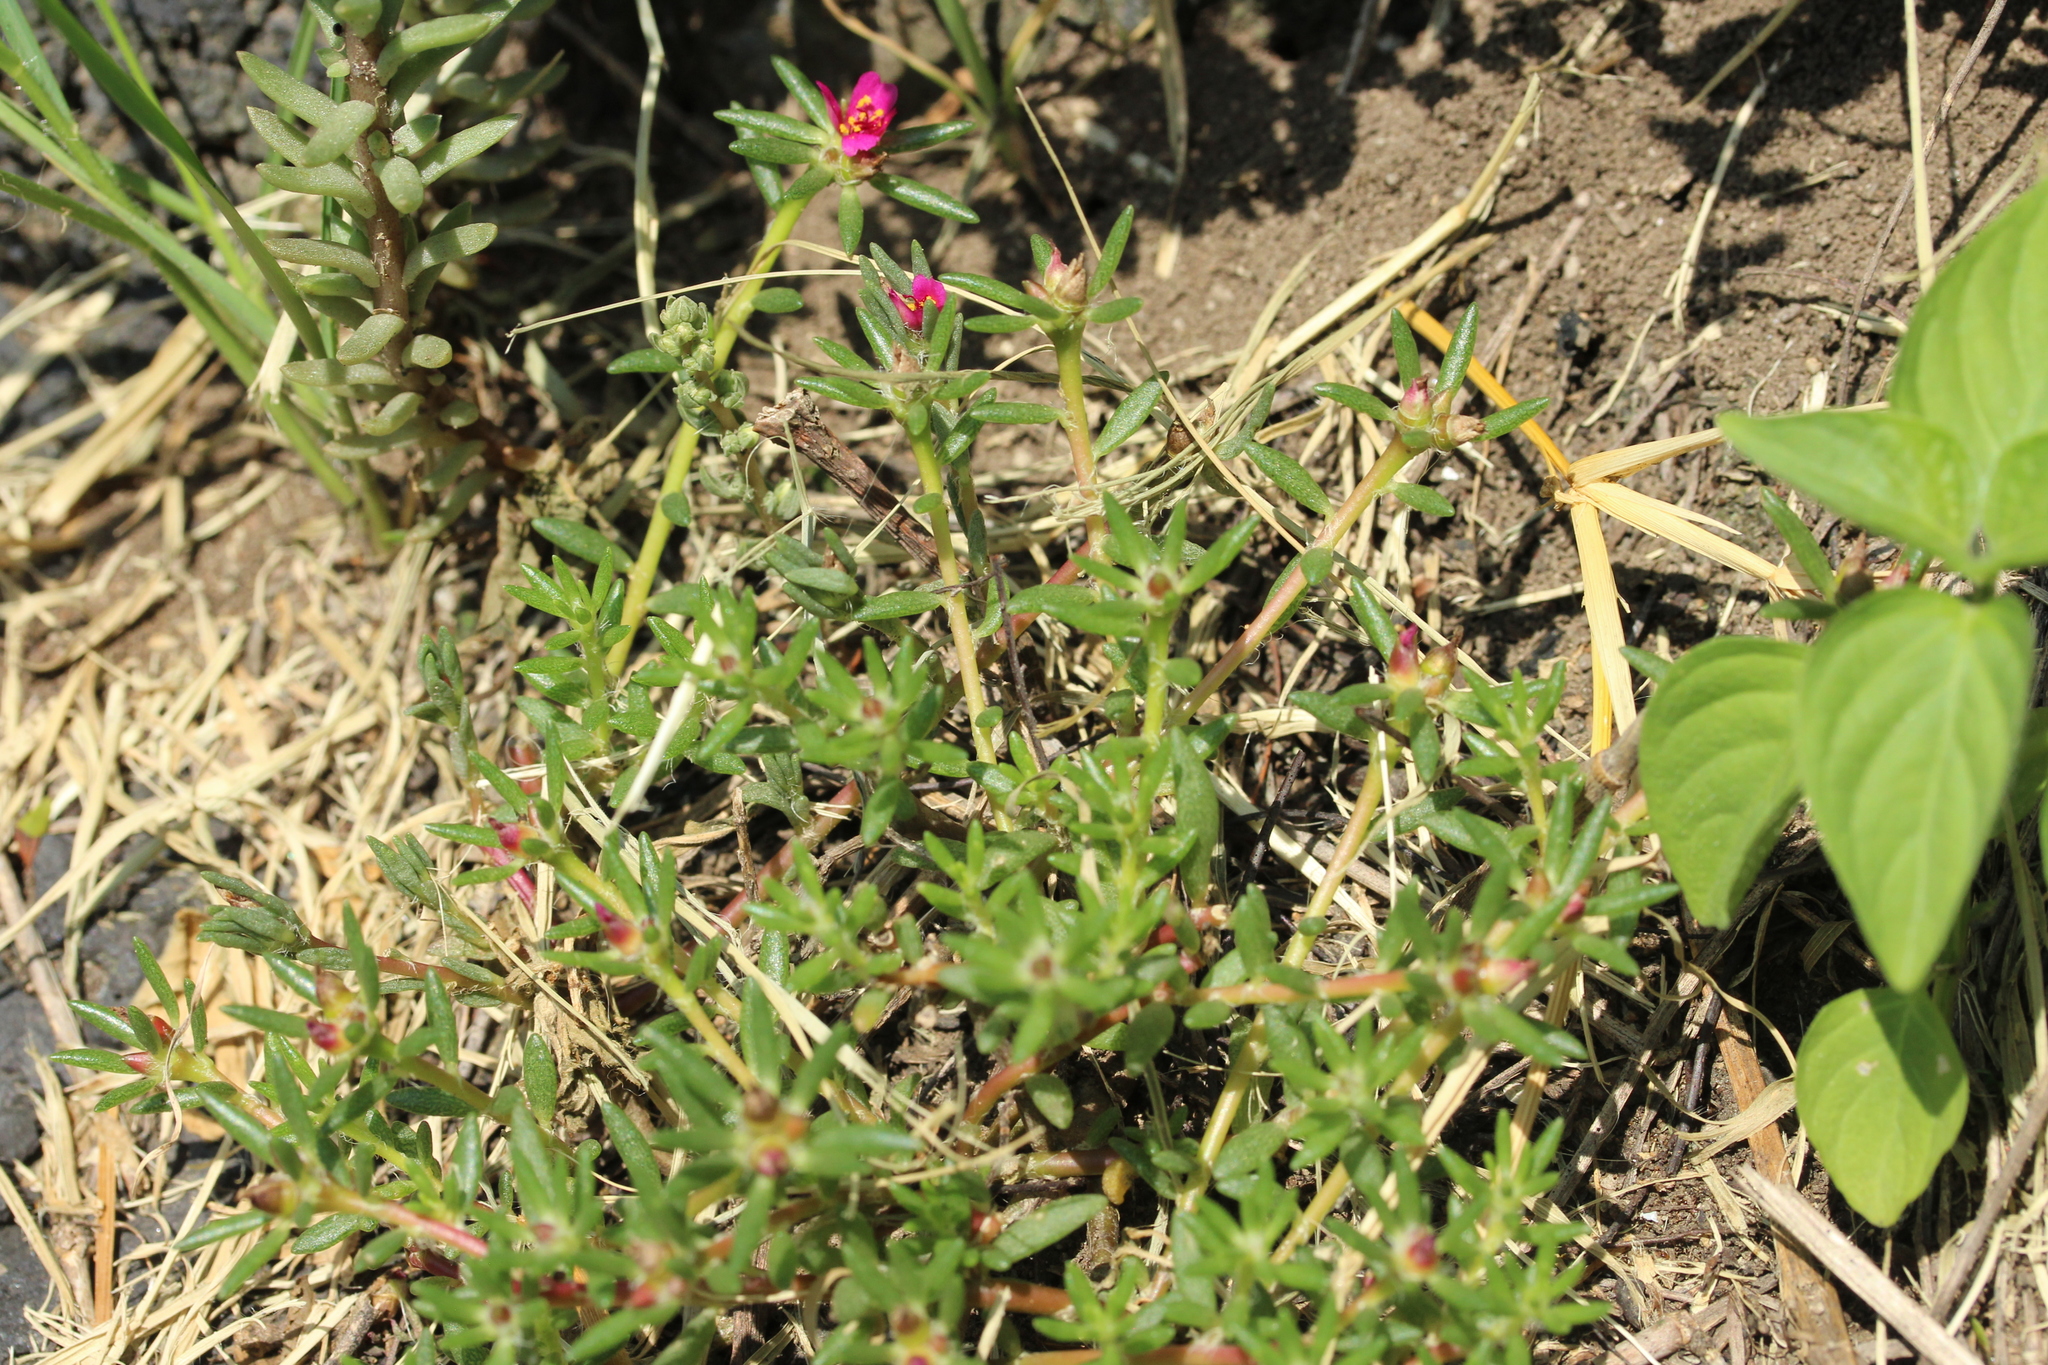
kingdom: Plantae
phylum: Tracheophyta
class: Magnoliopsida
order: Caryophyllales
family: Portulacaceae
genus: Portulaca
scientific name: Portulaca pilosa
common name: Kiss me quick
